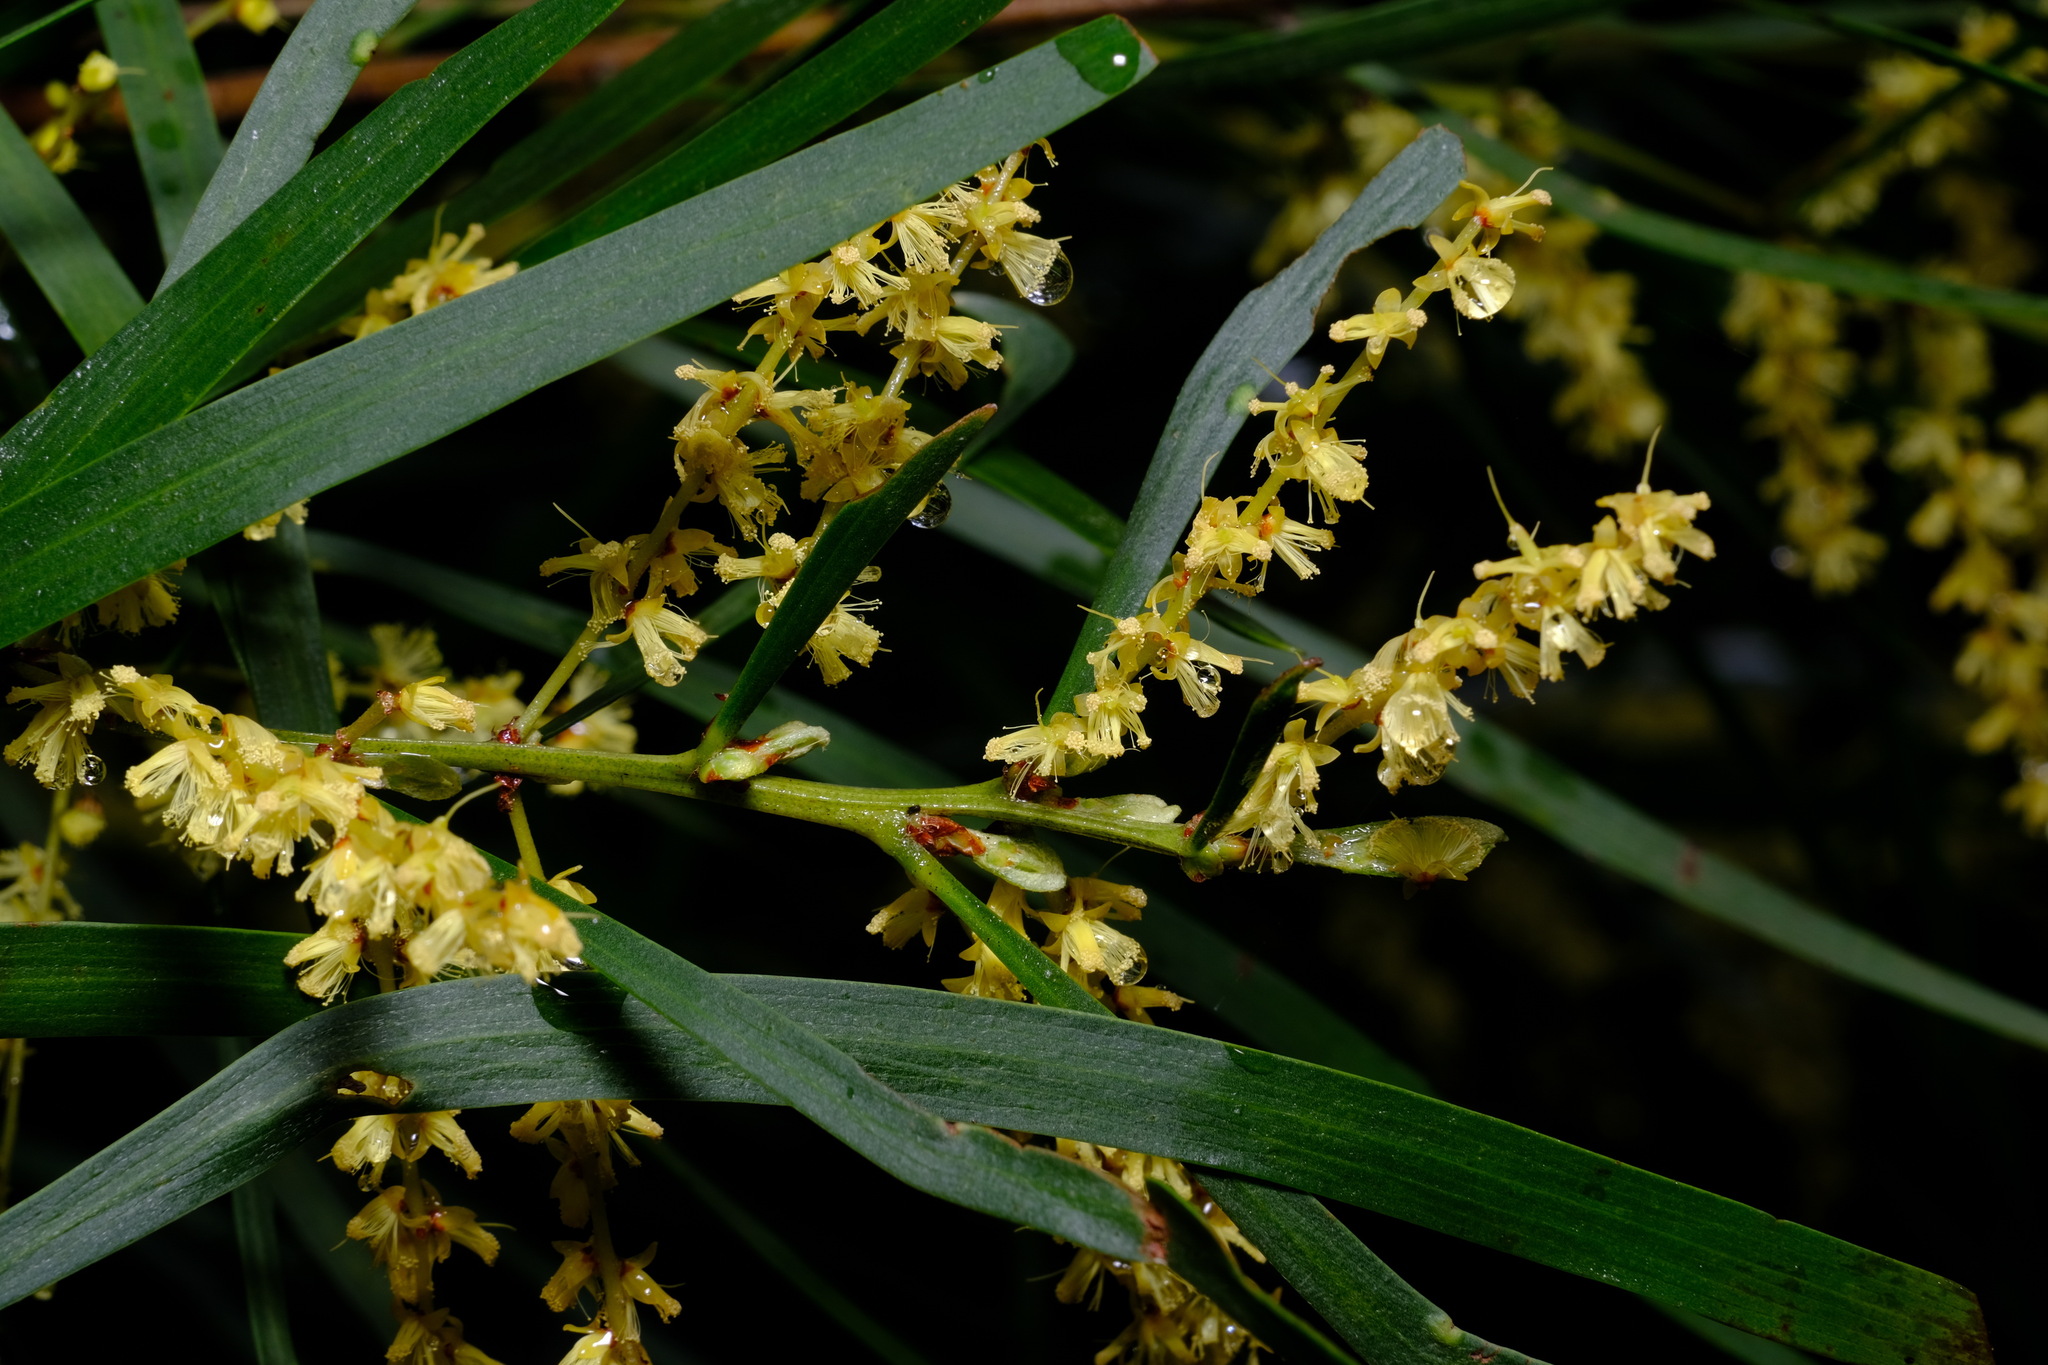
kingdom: Plantae
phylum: Tracheophyta
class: Magnoliopsida
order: Fabales
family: Fabaceae
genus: Acacia
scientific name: Acacia mucronata
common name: Variable sallow wattle
